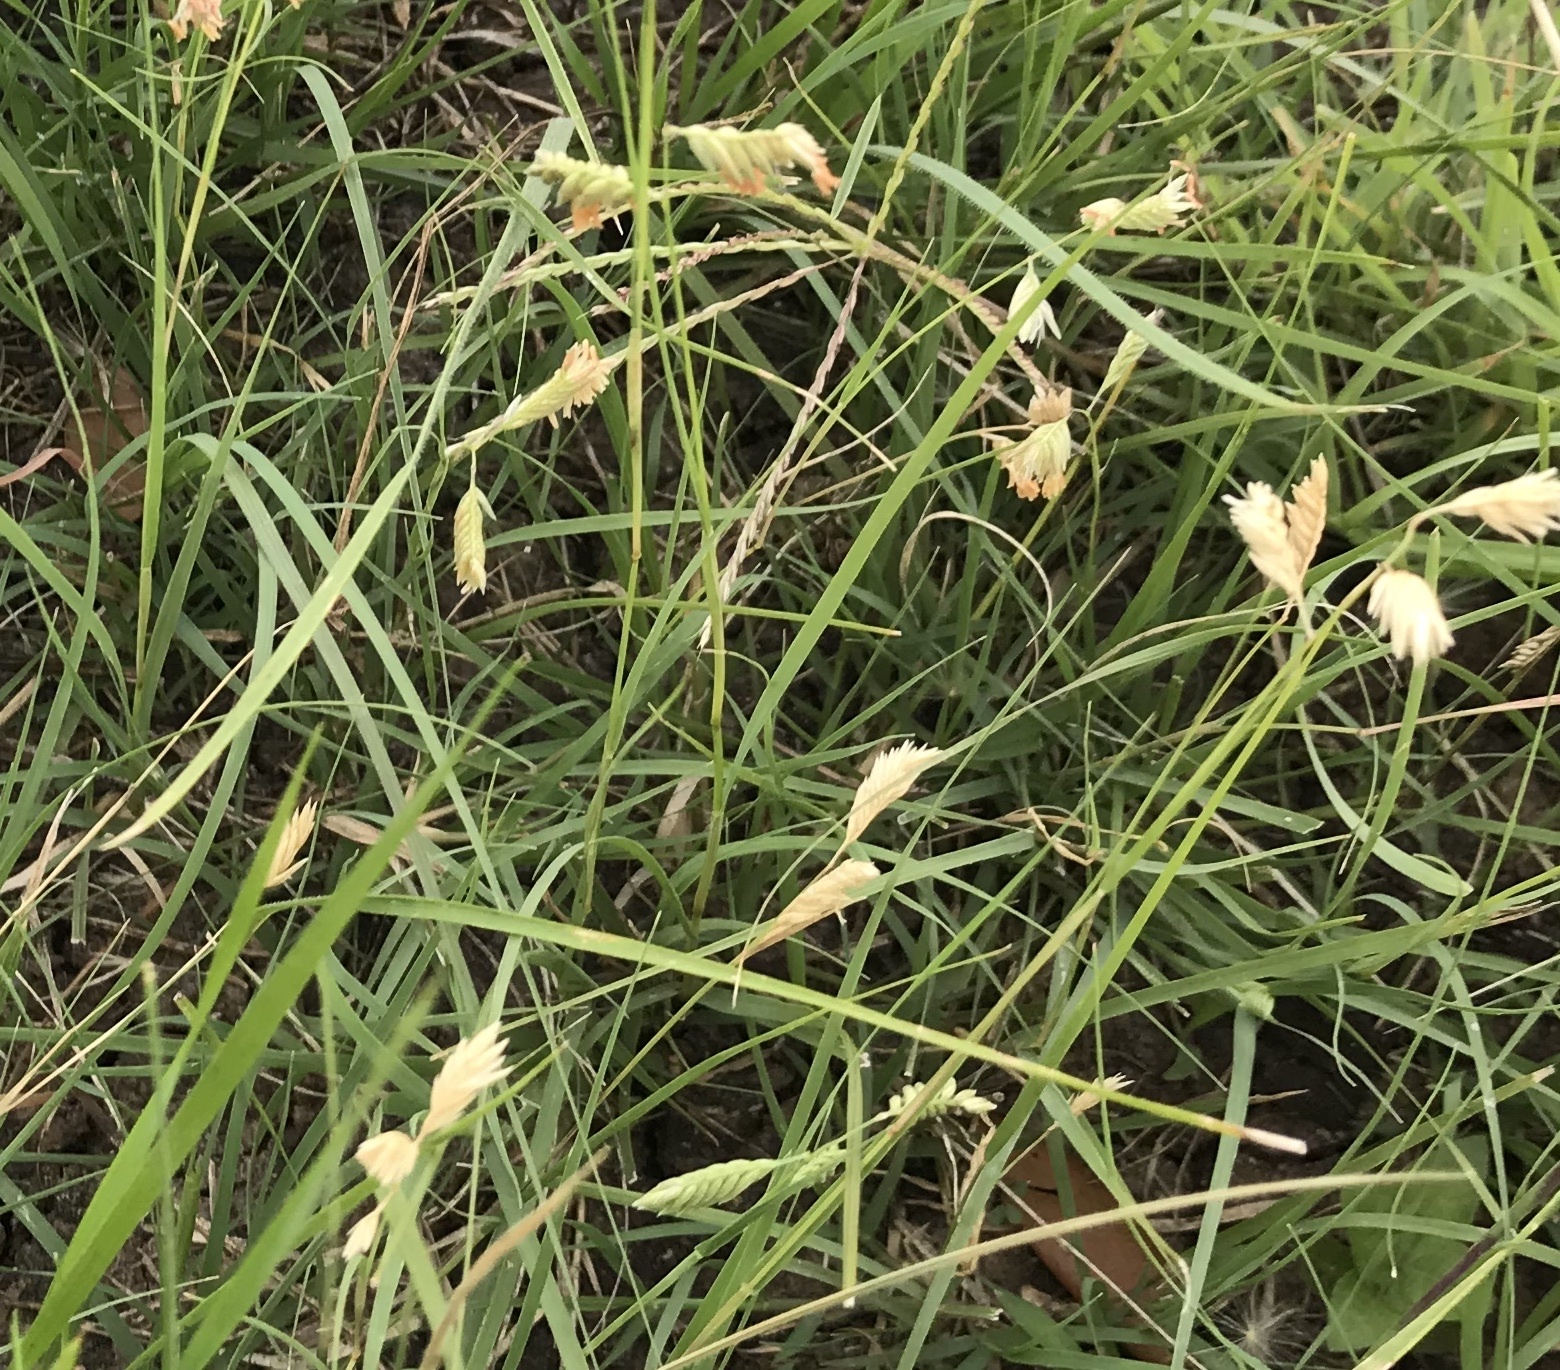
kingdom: Plantae
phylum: Tracheophyta
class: Liliopsida
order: Poales
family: Poaceae
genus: Bouteloua
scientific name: Bouteloua dactyloides
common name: Buffalo grass
